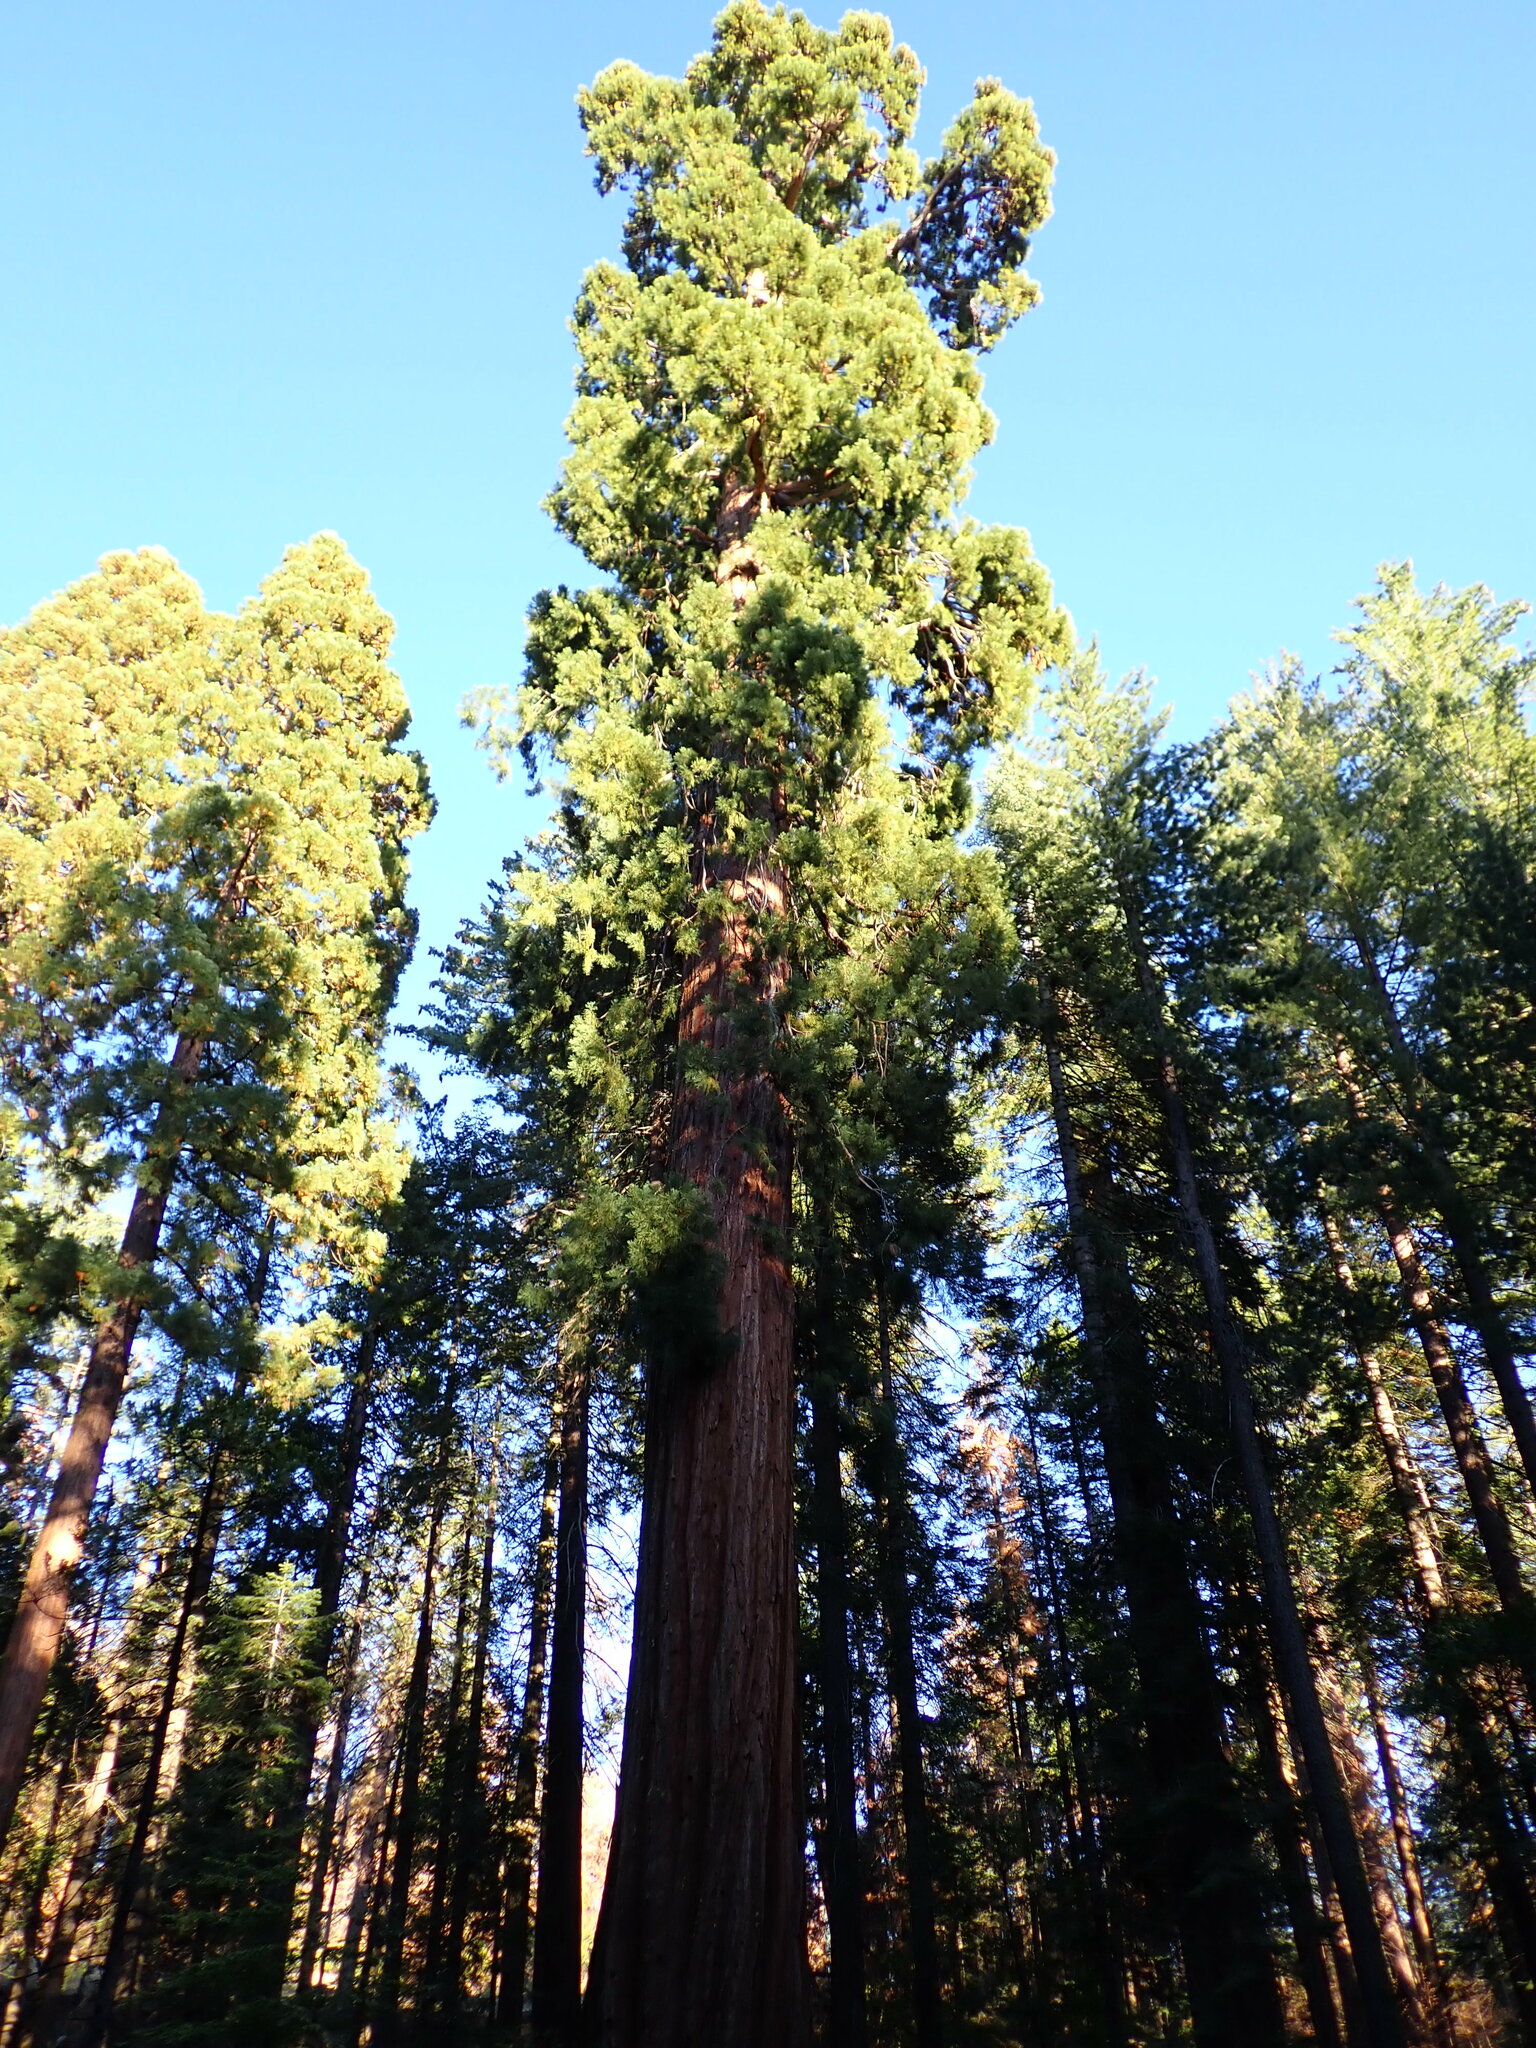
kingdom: Plantae
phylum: Tracheophyta
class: Pinopsida
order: Pinales
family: Cupressaceae
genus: Sequoiadendron
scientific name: Sequoiadendron giganteum
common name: Wellingtonia
